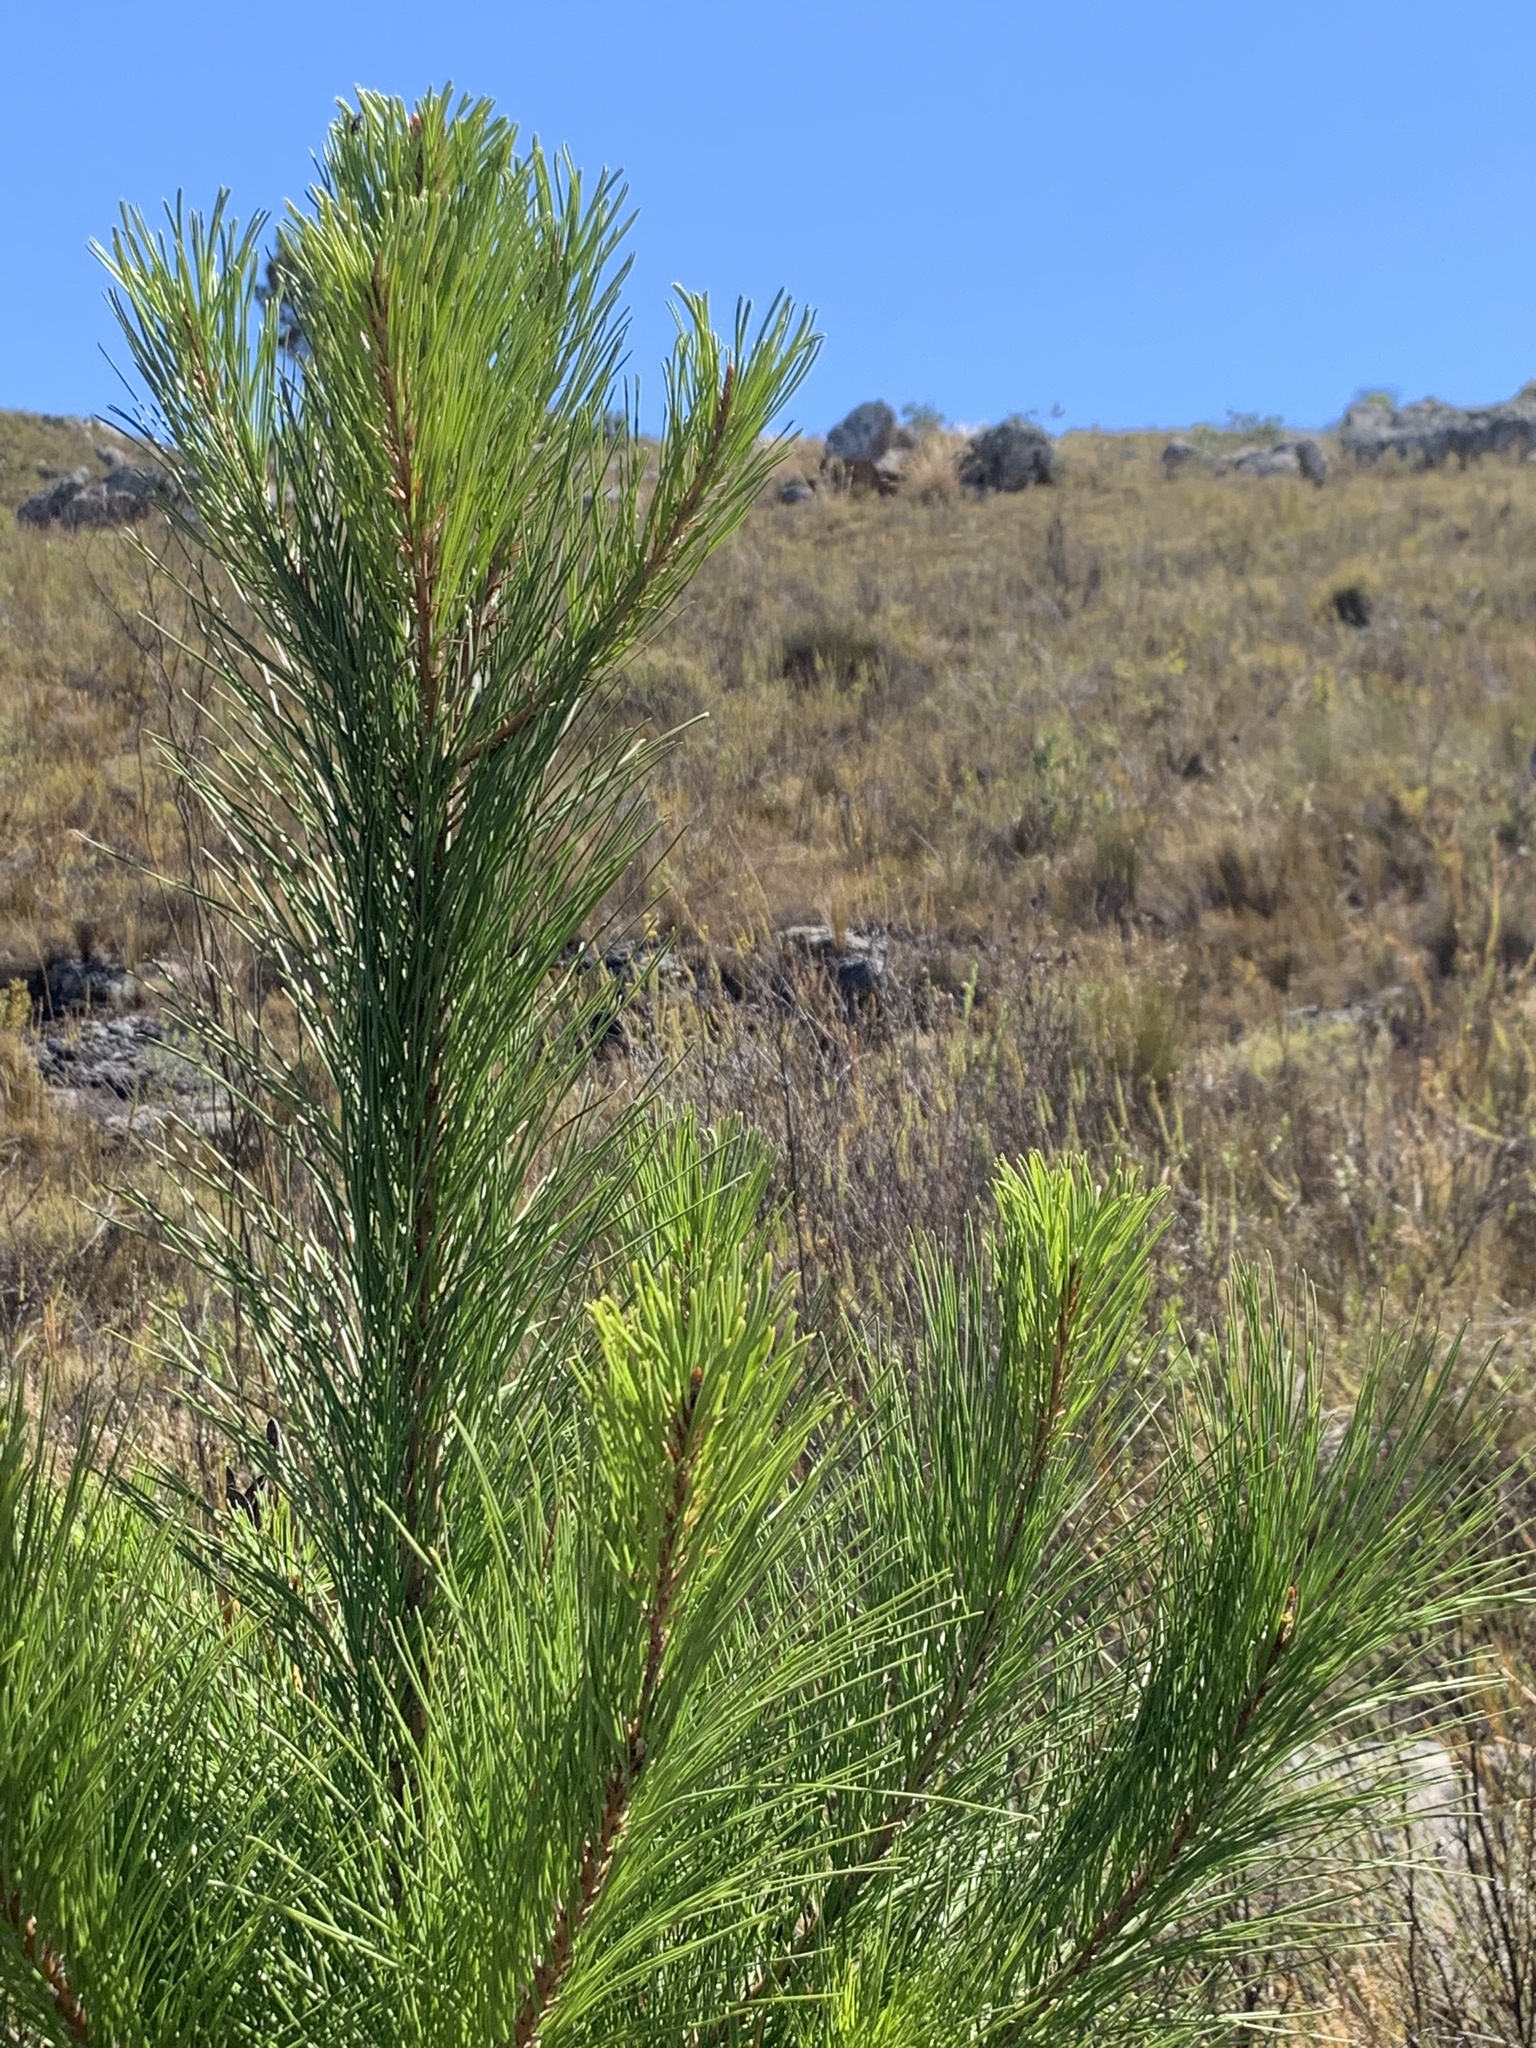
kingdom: Plantae
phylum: Tracheophyta
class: Pinopsida
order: Pinales
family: Pinaceae
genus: Pinus
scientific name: Pinus radiata
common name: Monterey pine
